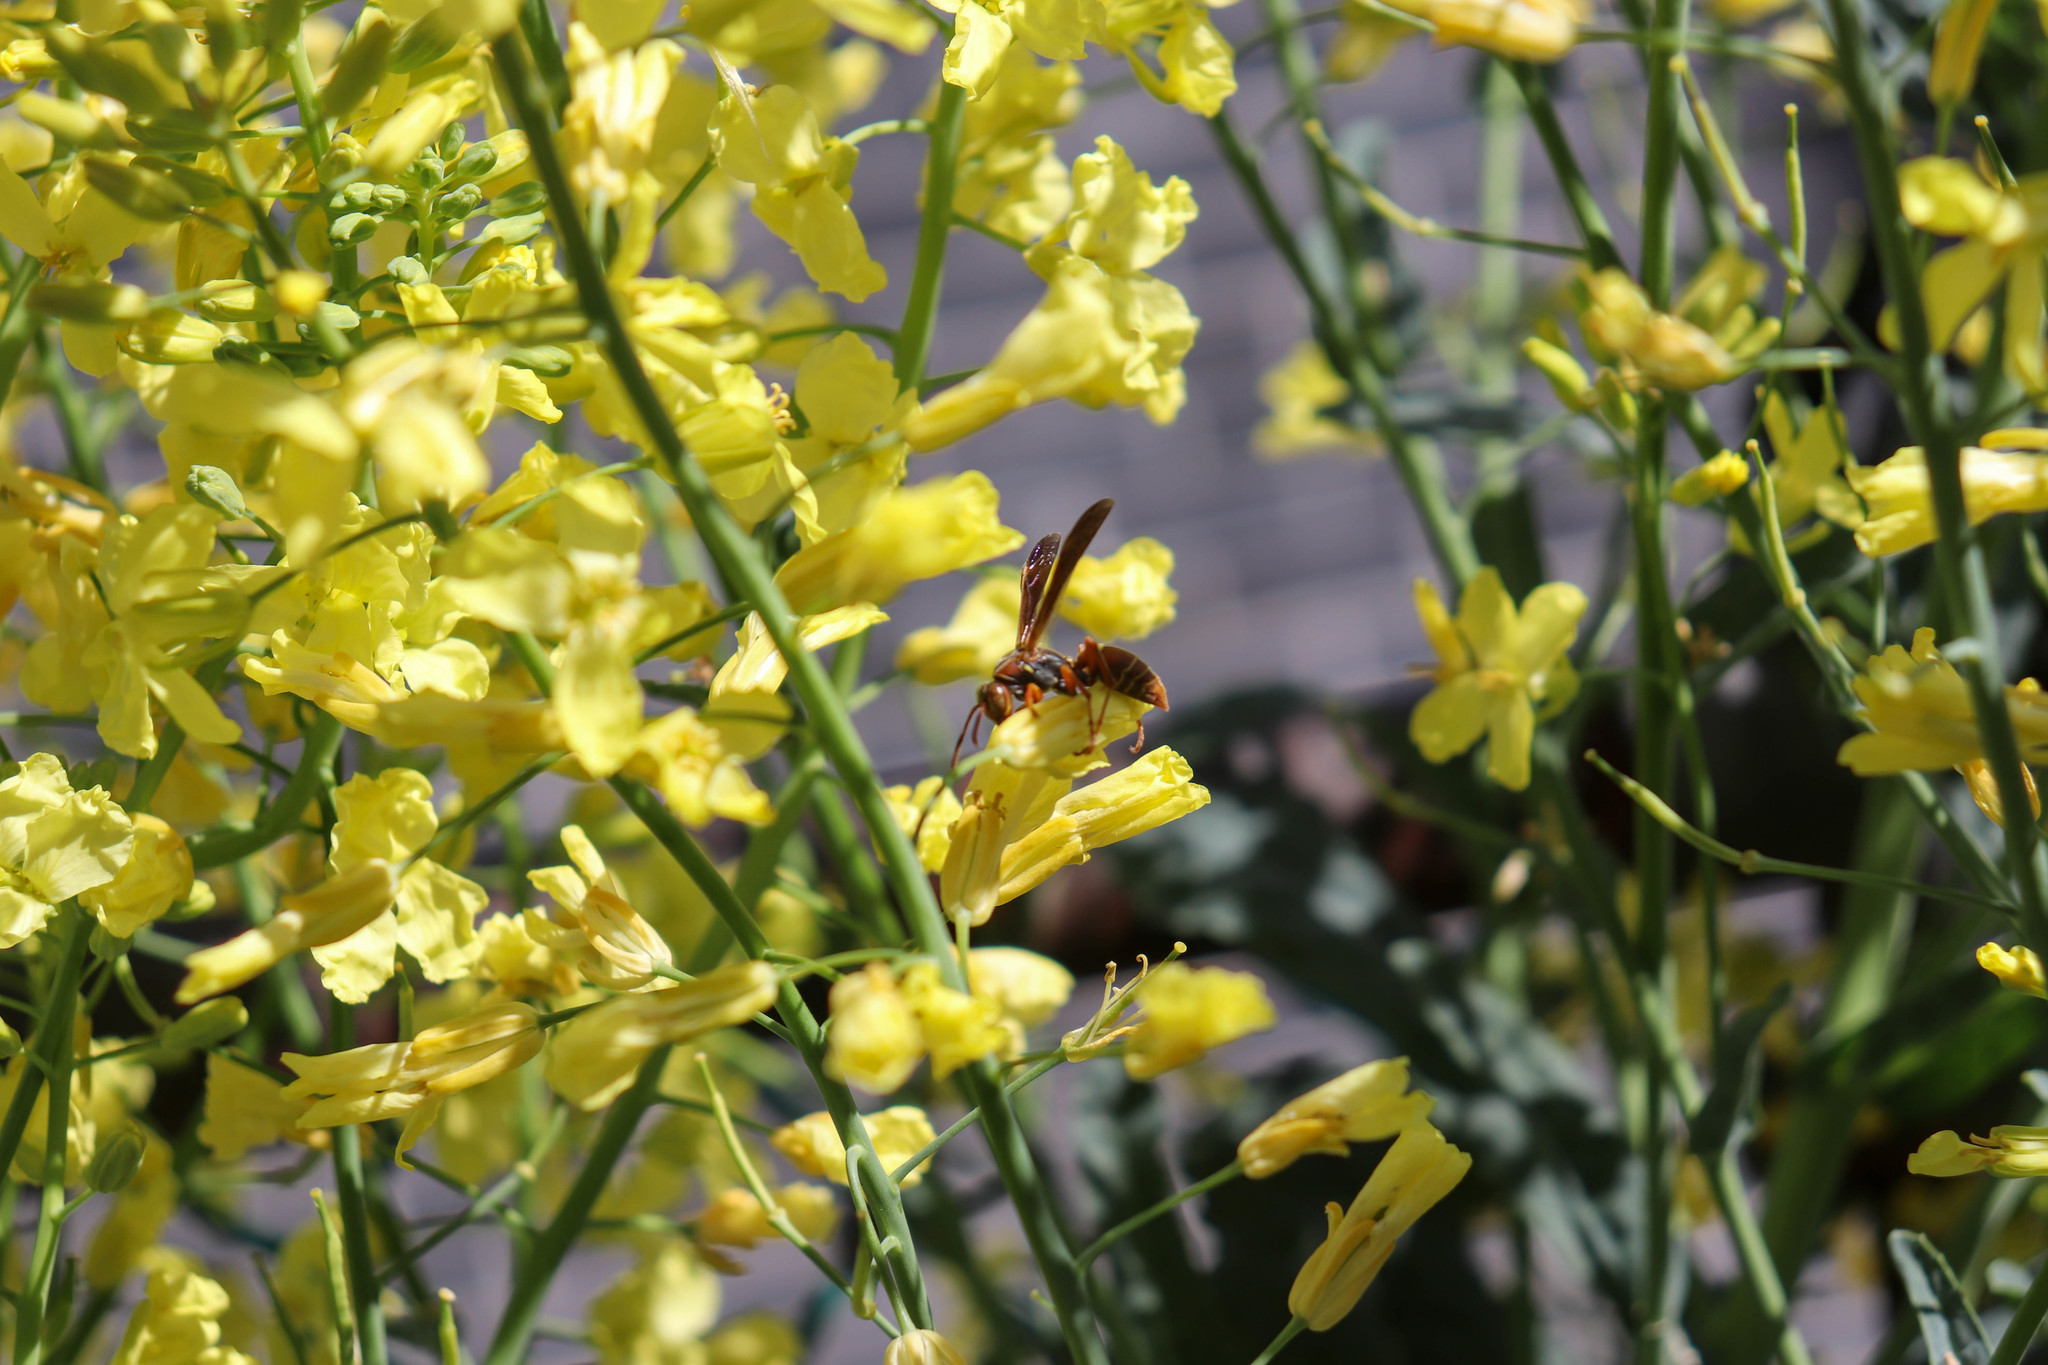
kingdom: Animalia
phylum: Arthropoda
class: Insecta
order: Hymenoptera
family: Eumenidae
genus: Polistes
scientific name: Polistes fuscatus
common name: Dark paper wasp
